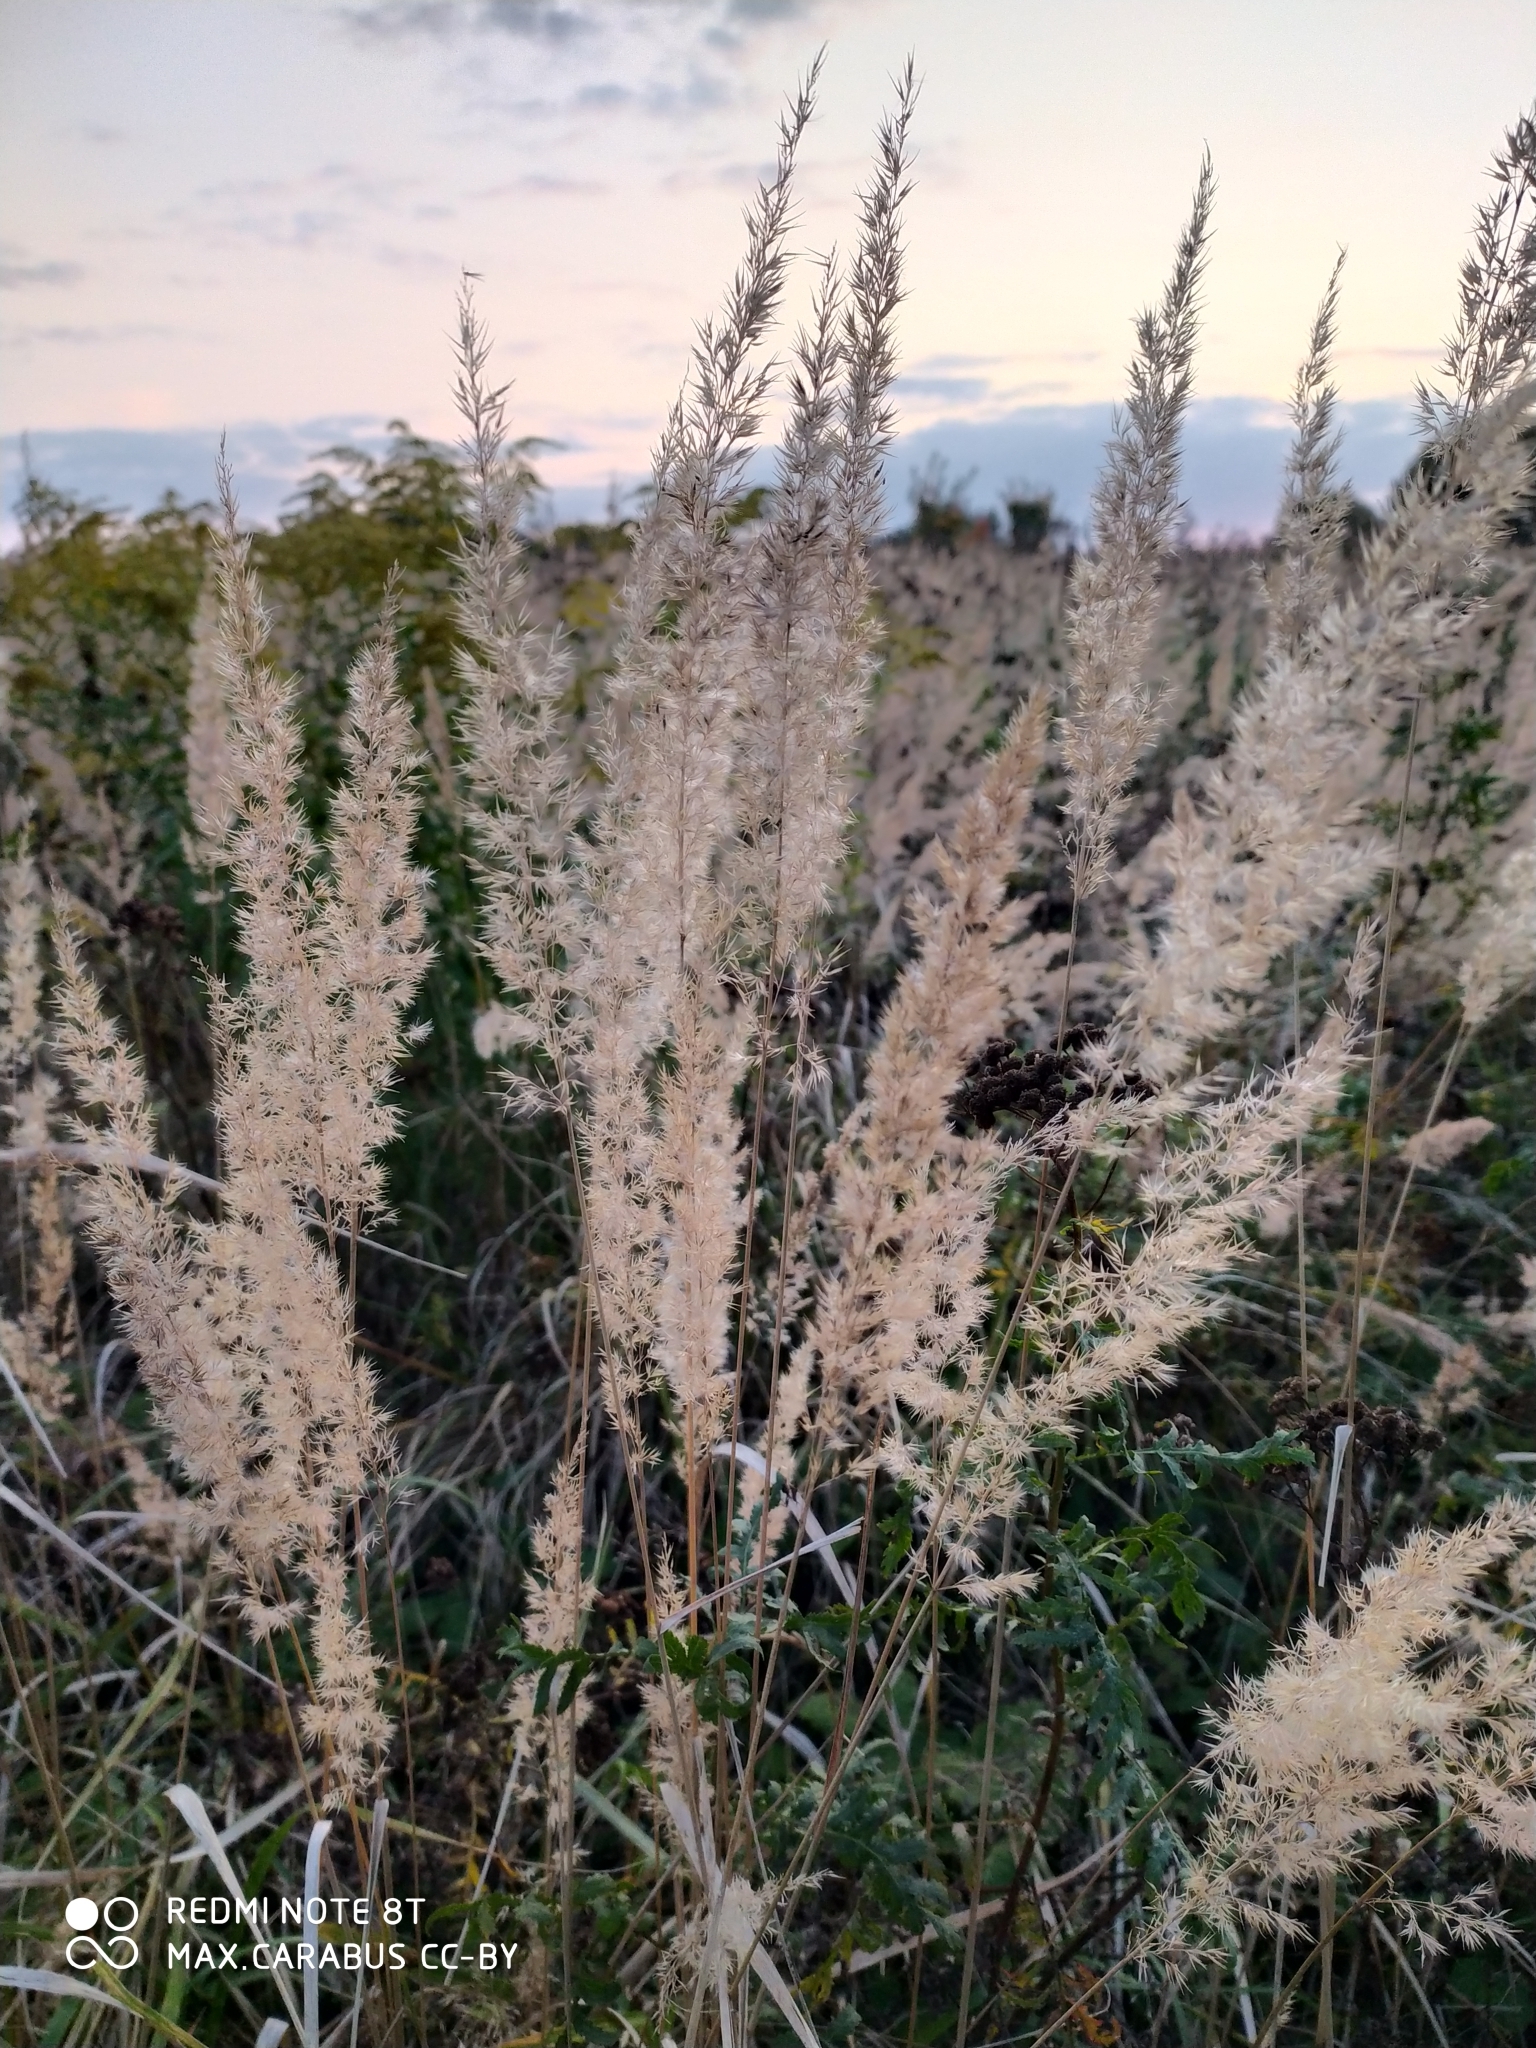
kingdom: Plantae
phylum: Tracheophyta
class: Liliopsida
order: Poales
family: Poaceae
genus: Calamagrostis
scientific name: Calamagrostis epigejos
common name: Wood small-reed
